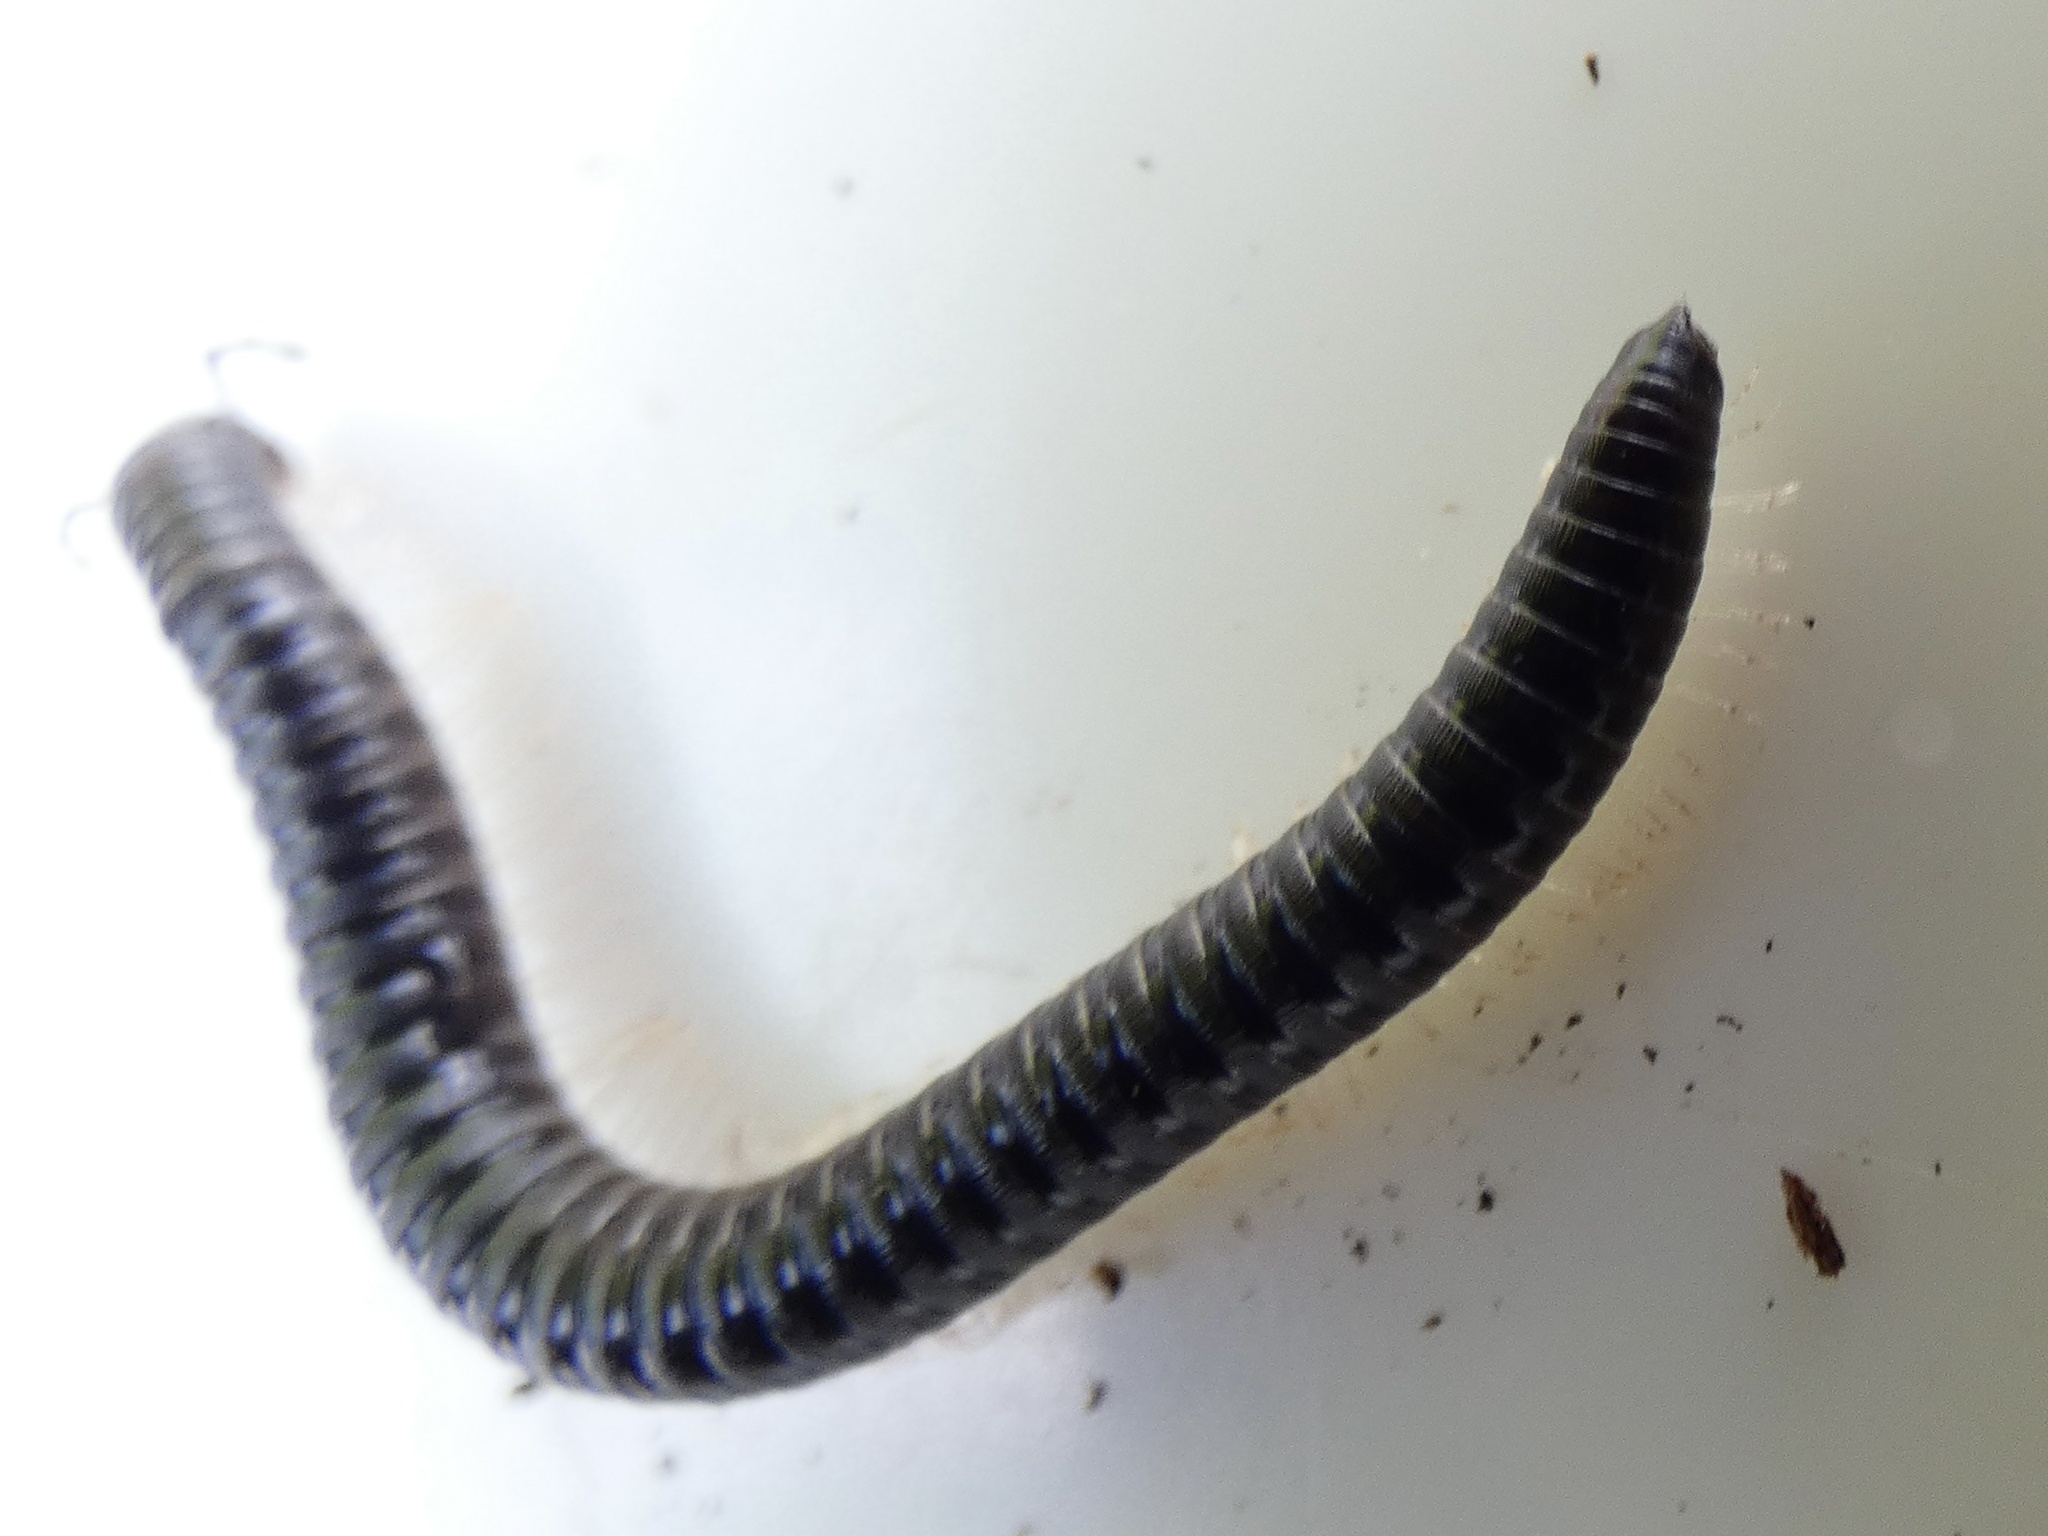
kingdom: Animalia
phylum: Arthropoda
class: Diplopoda
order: Julida
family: Julidae
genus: Tachypodoiulus
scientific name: Tachypodoiulus niger
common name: White-legged snake millipede
